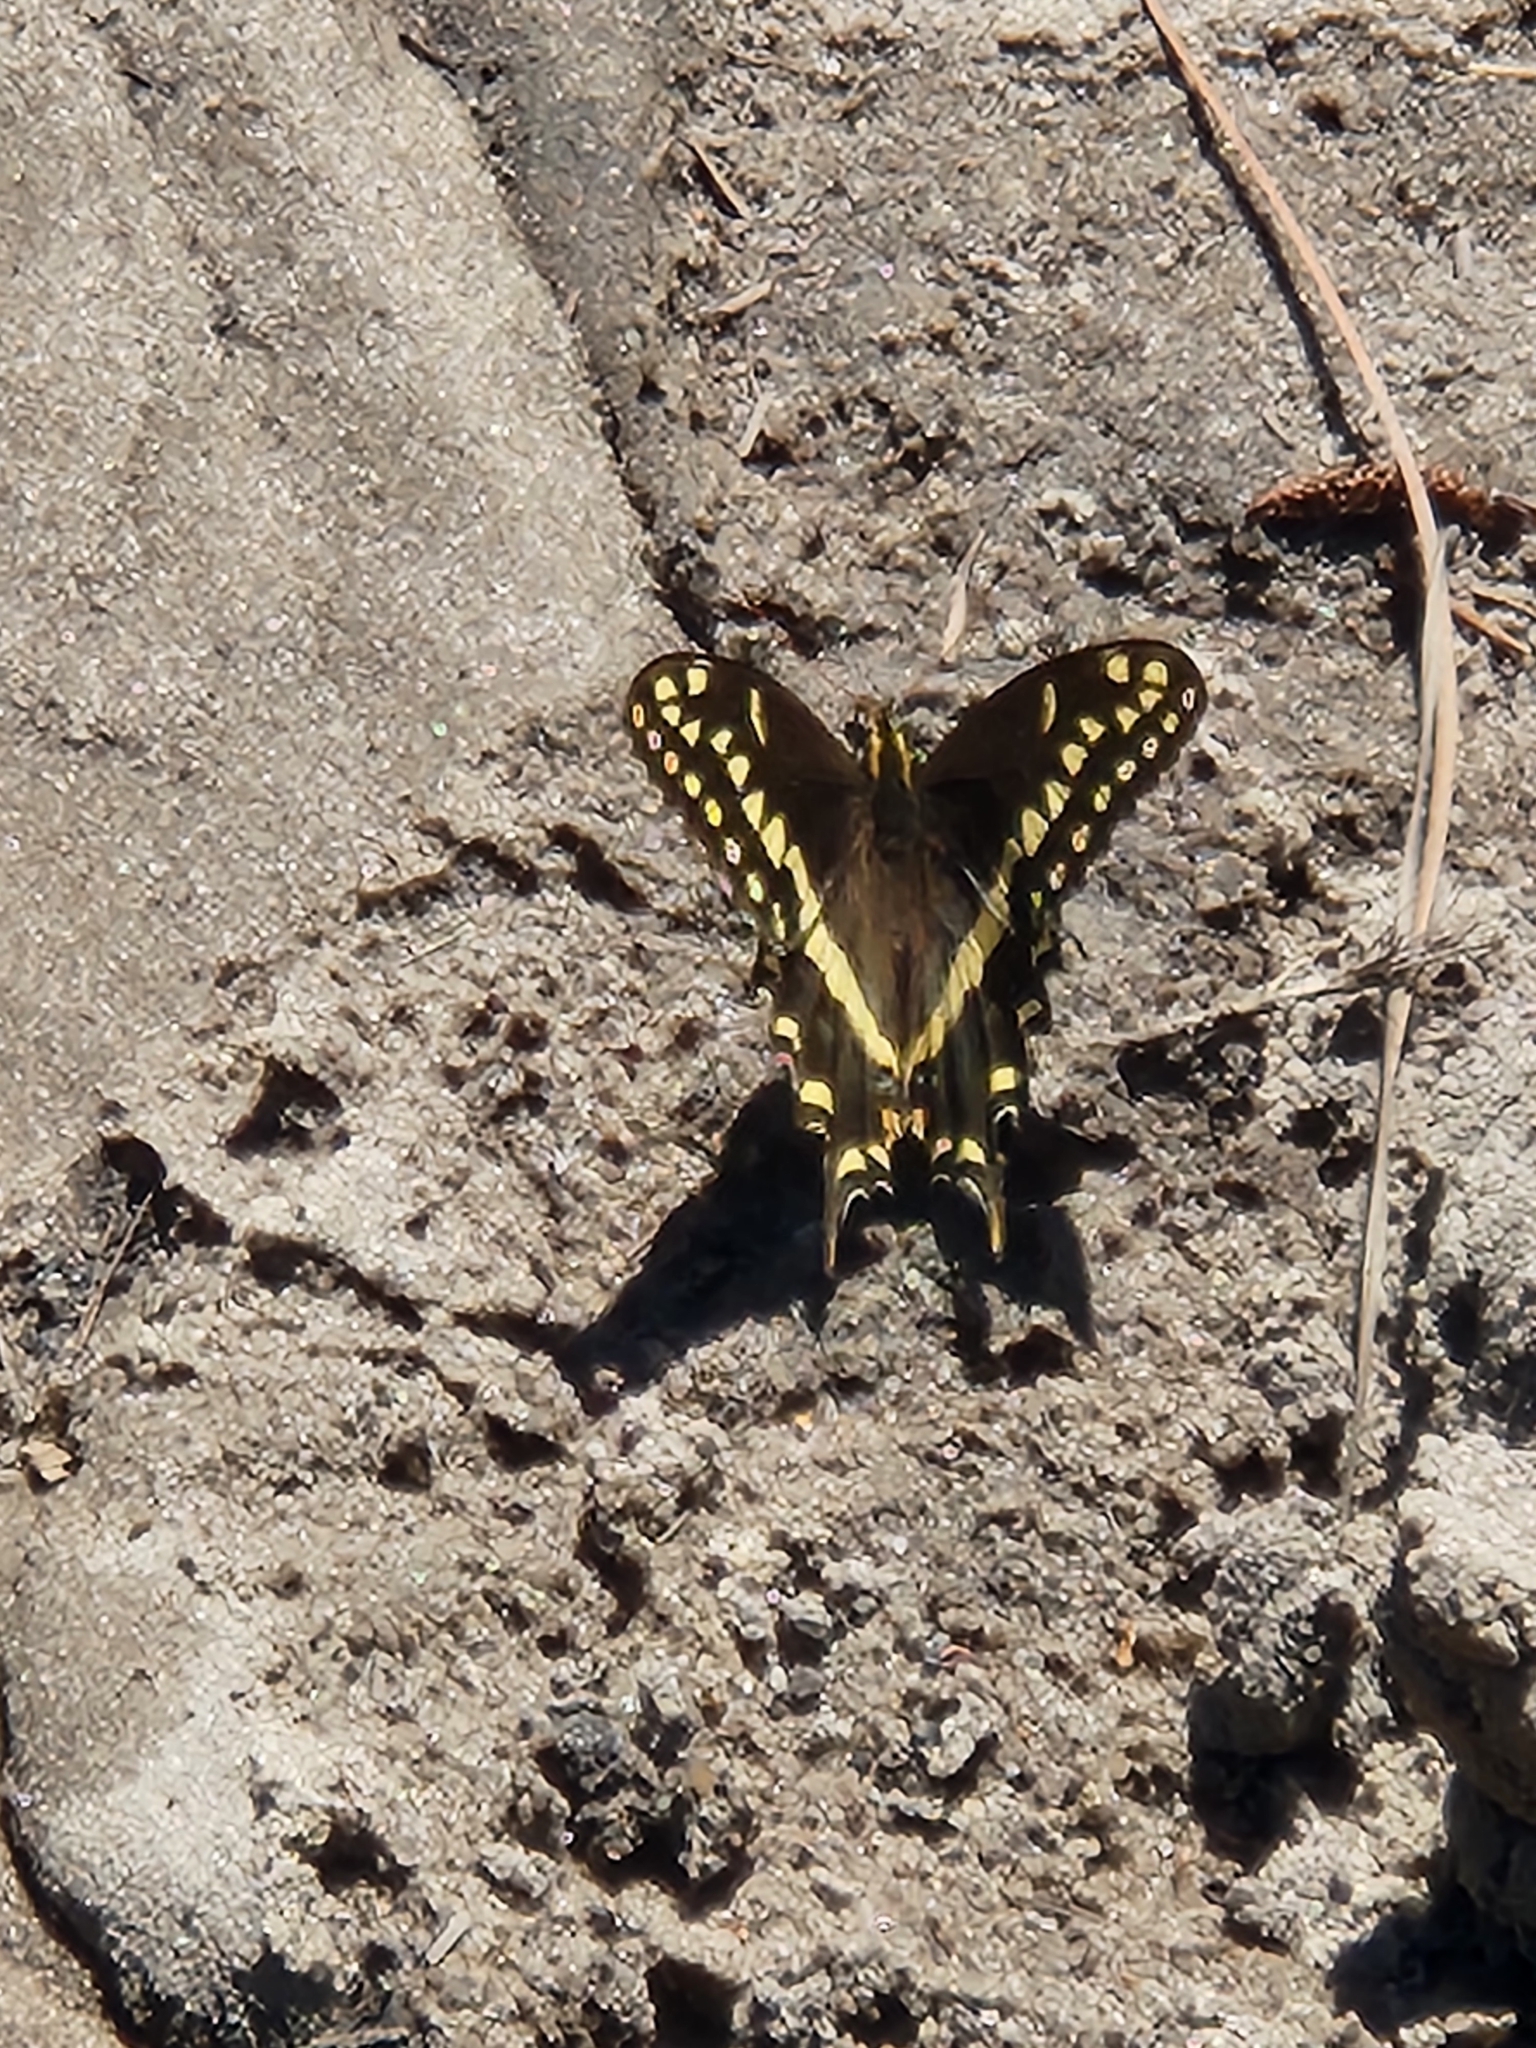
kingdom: Animalia
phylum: Arthropoda
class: Insecta
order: Lepidoptera
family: Papilionidae
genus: Papilio
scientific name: Papilio palamedes
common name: Palamedes swallowtail
